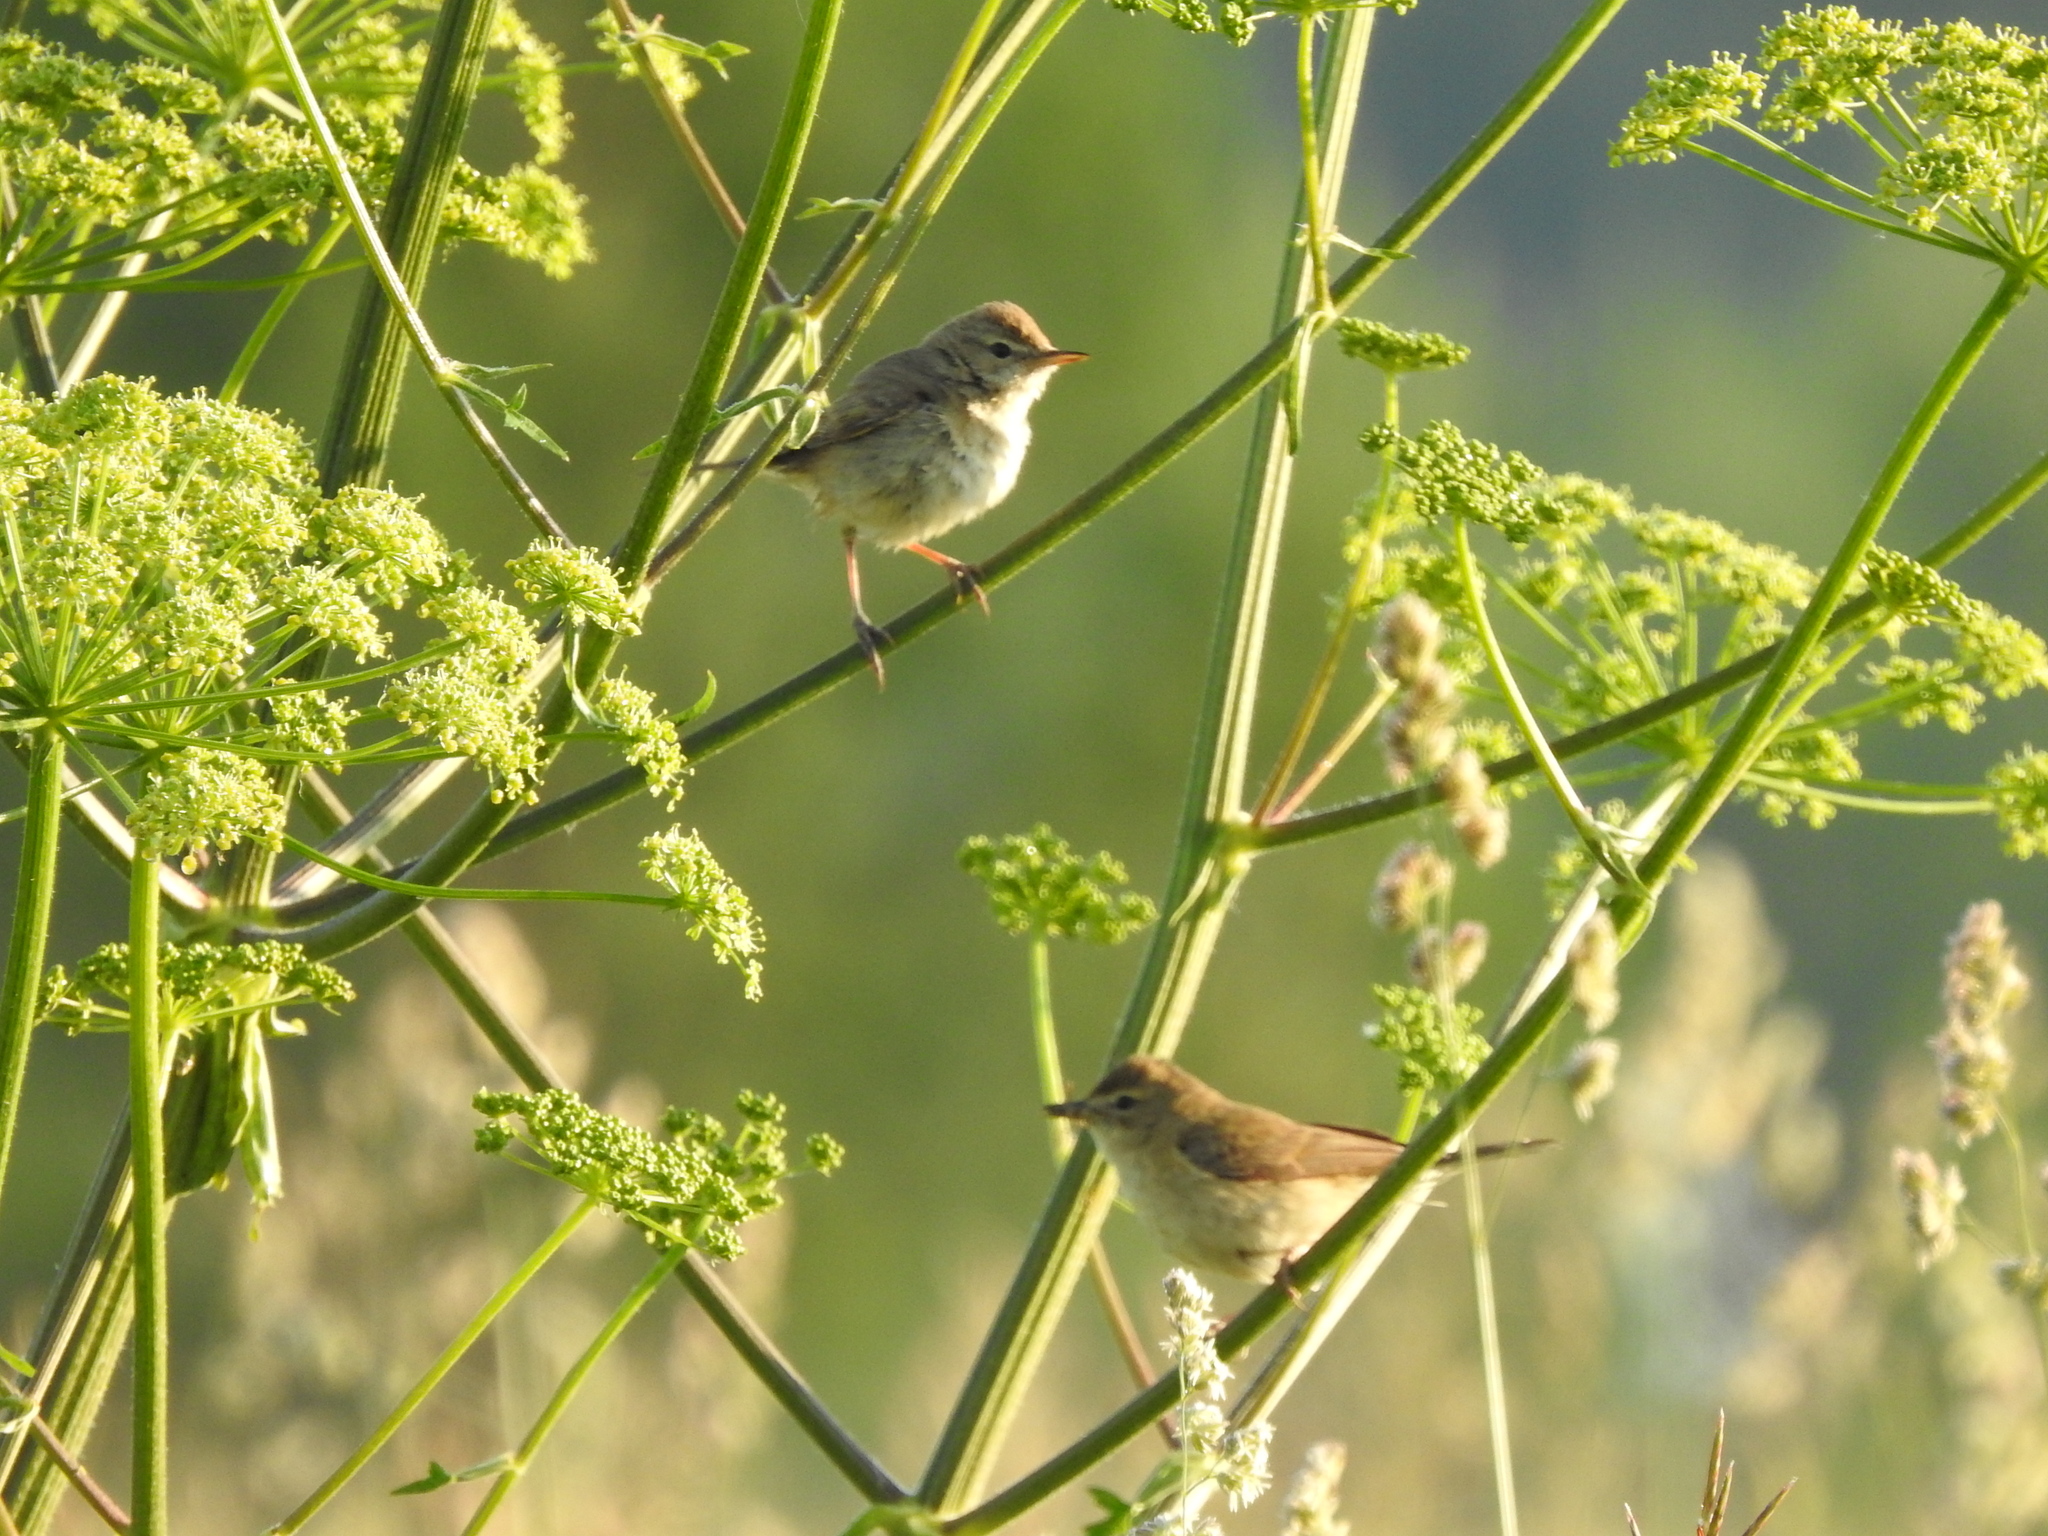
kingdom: Animalia
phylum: Chordata
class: Aves
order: Passeriformes
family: Acrocephalidae
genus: Iduna
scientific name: Iduna caligata
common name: Booted warbler
